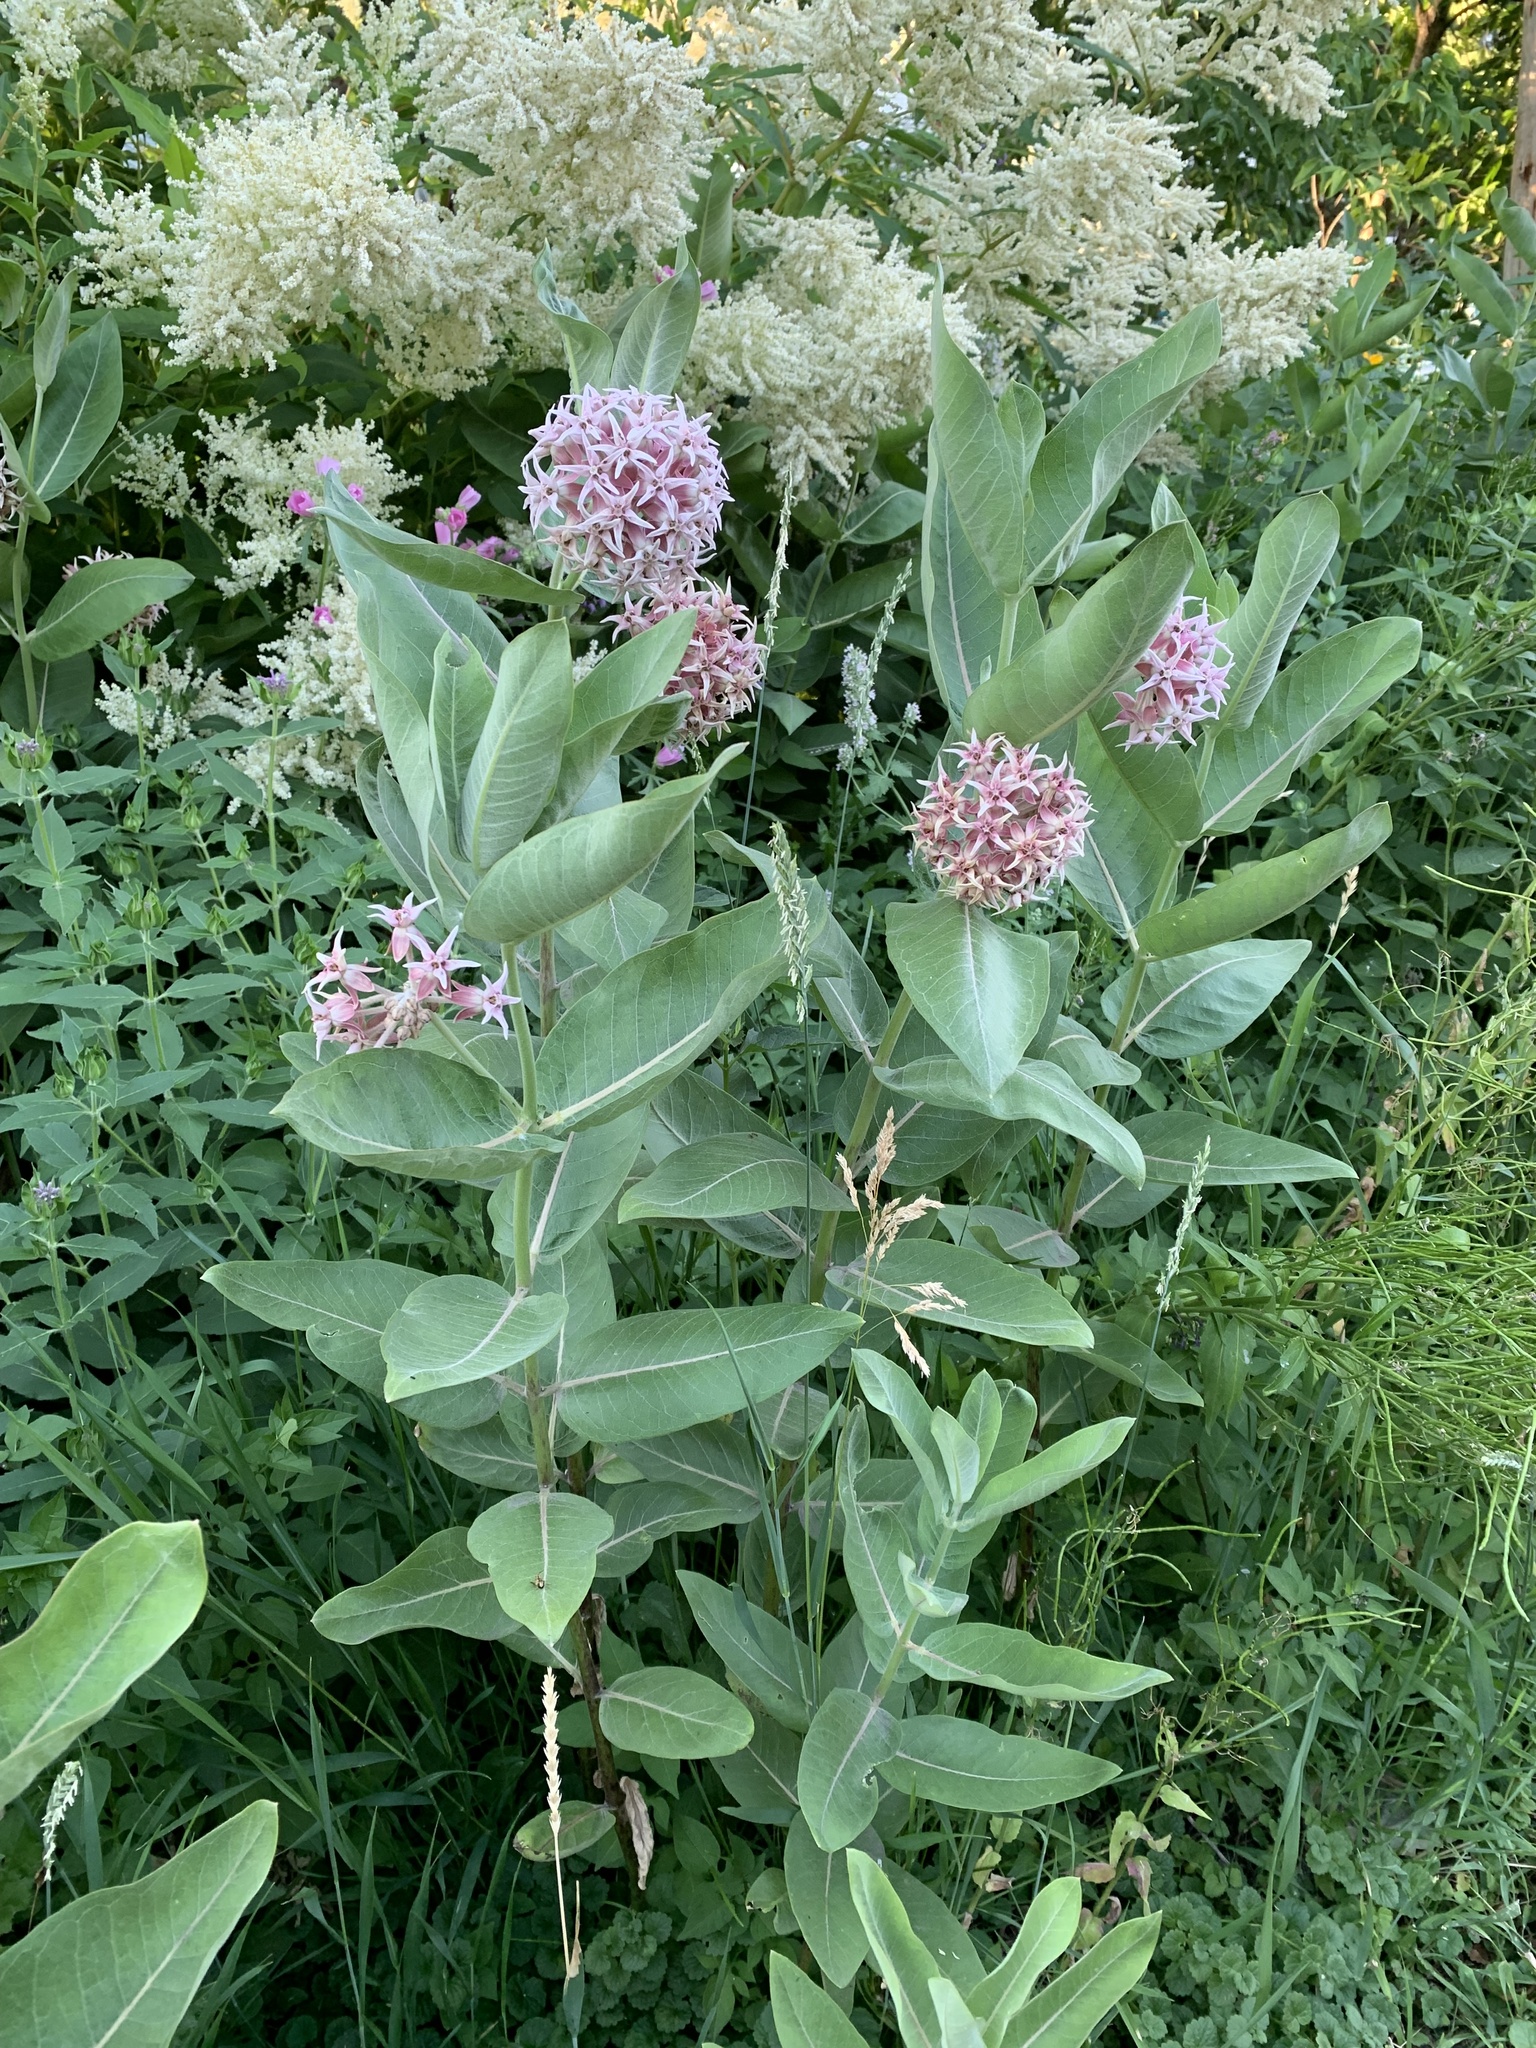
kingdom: Plantae
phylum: Tracheophyta
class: Magnoliopsida
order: Gentianales
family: Apocynaceae
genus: Asclepias
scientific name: Asclepias speciosa
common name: Showy milkweed
